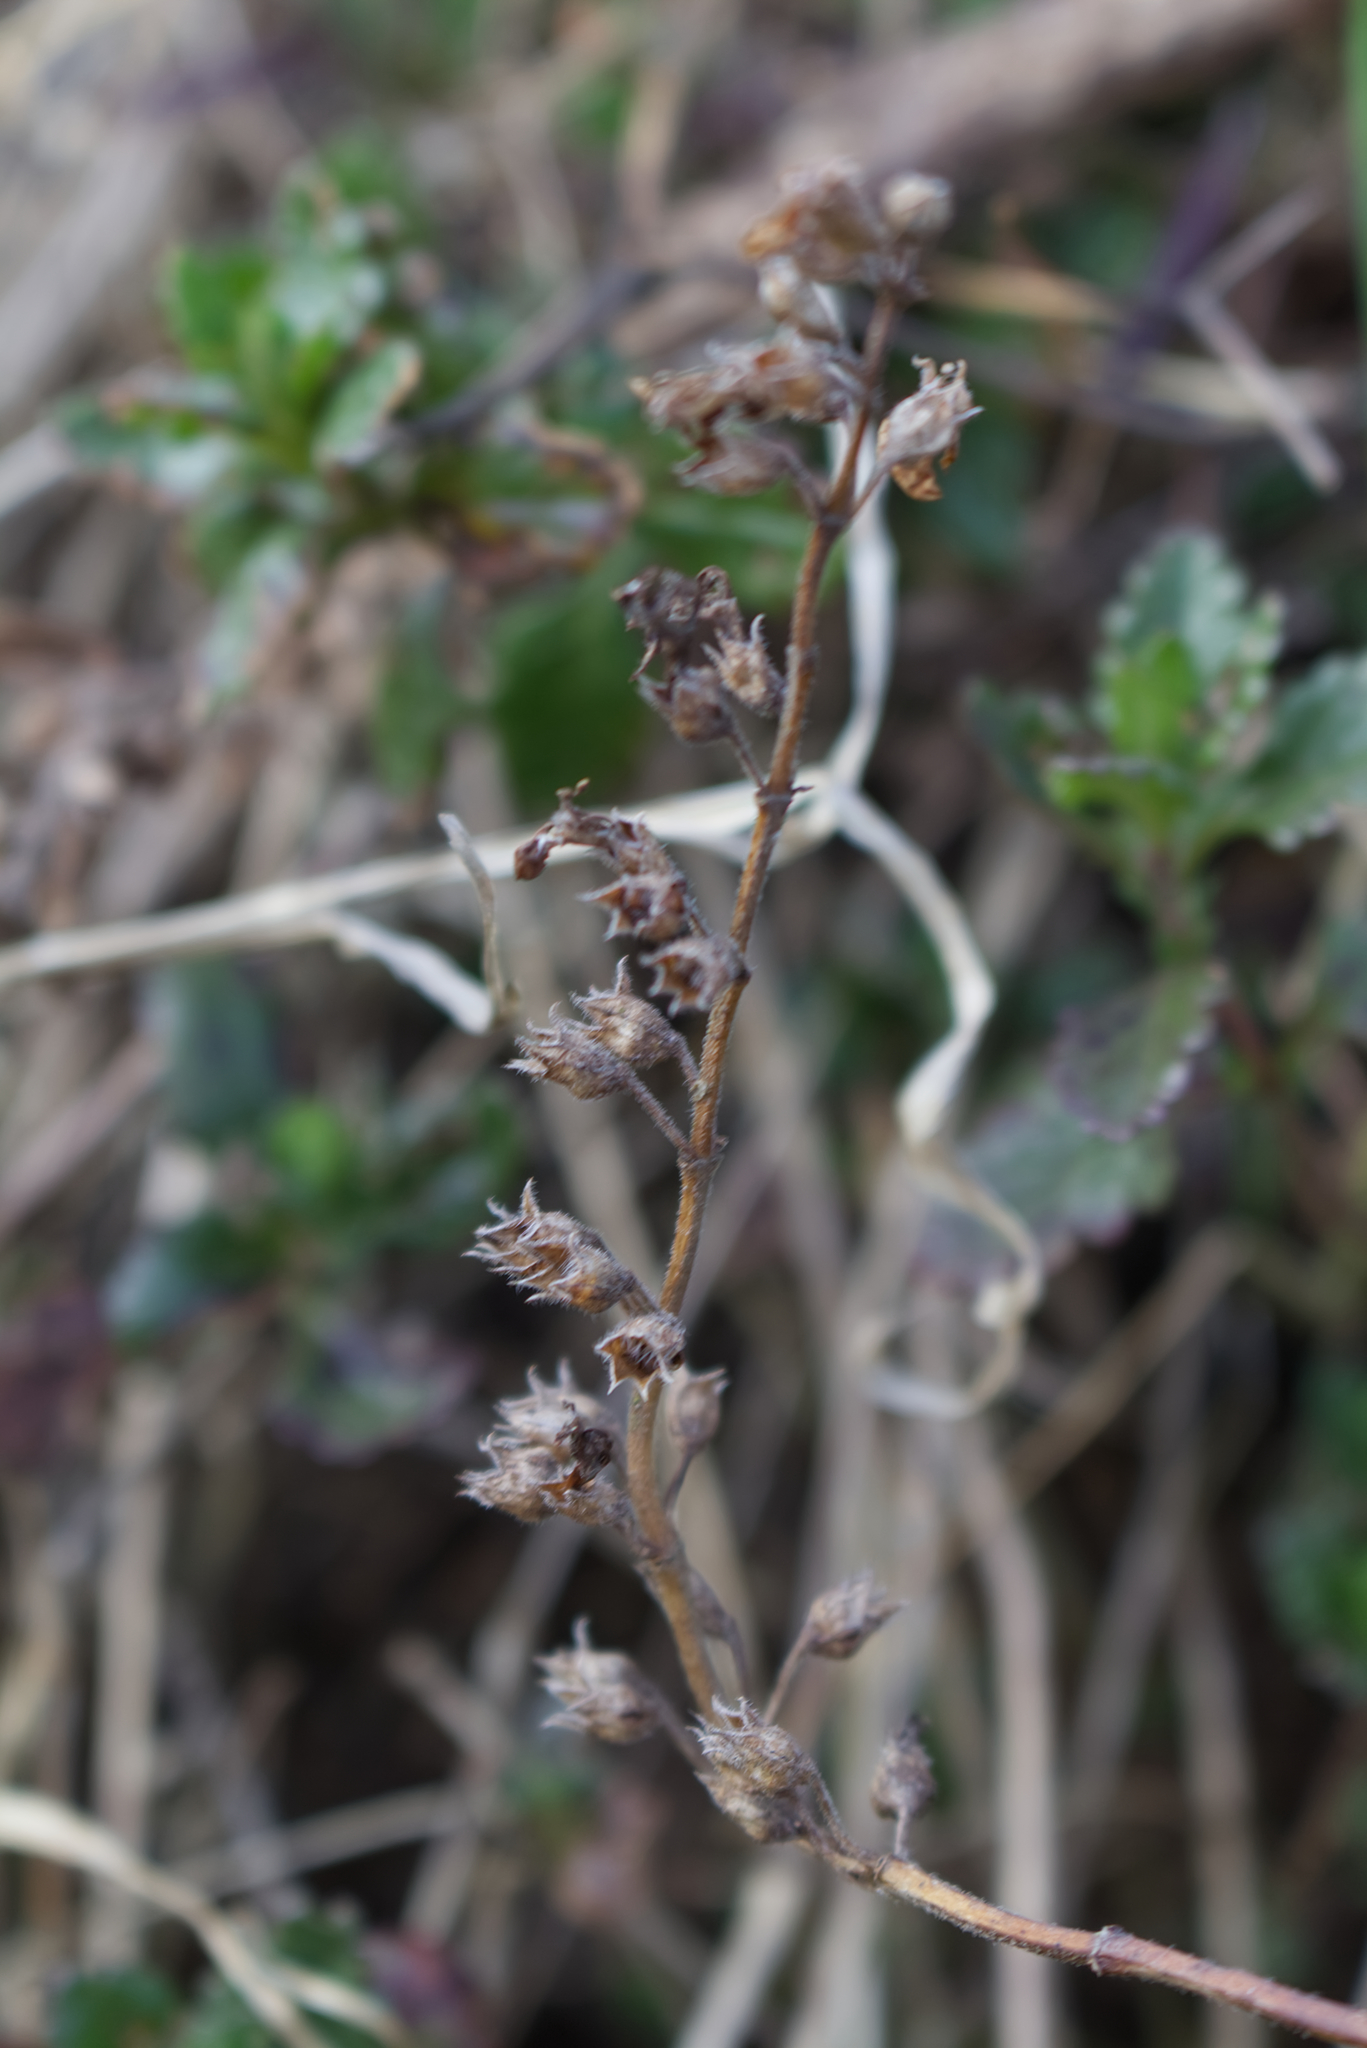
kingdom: Plantae
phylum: Tracheophyta
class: Magnoliopsida
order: Lamiales
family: Lamiaceae
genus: Teucrium
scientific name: Teucrium chamaedrys
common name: Wall germander
